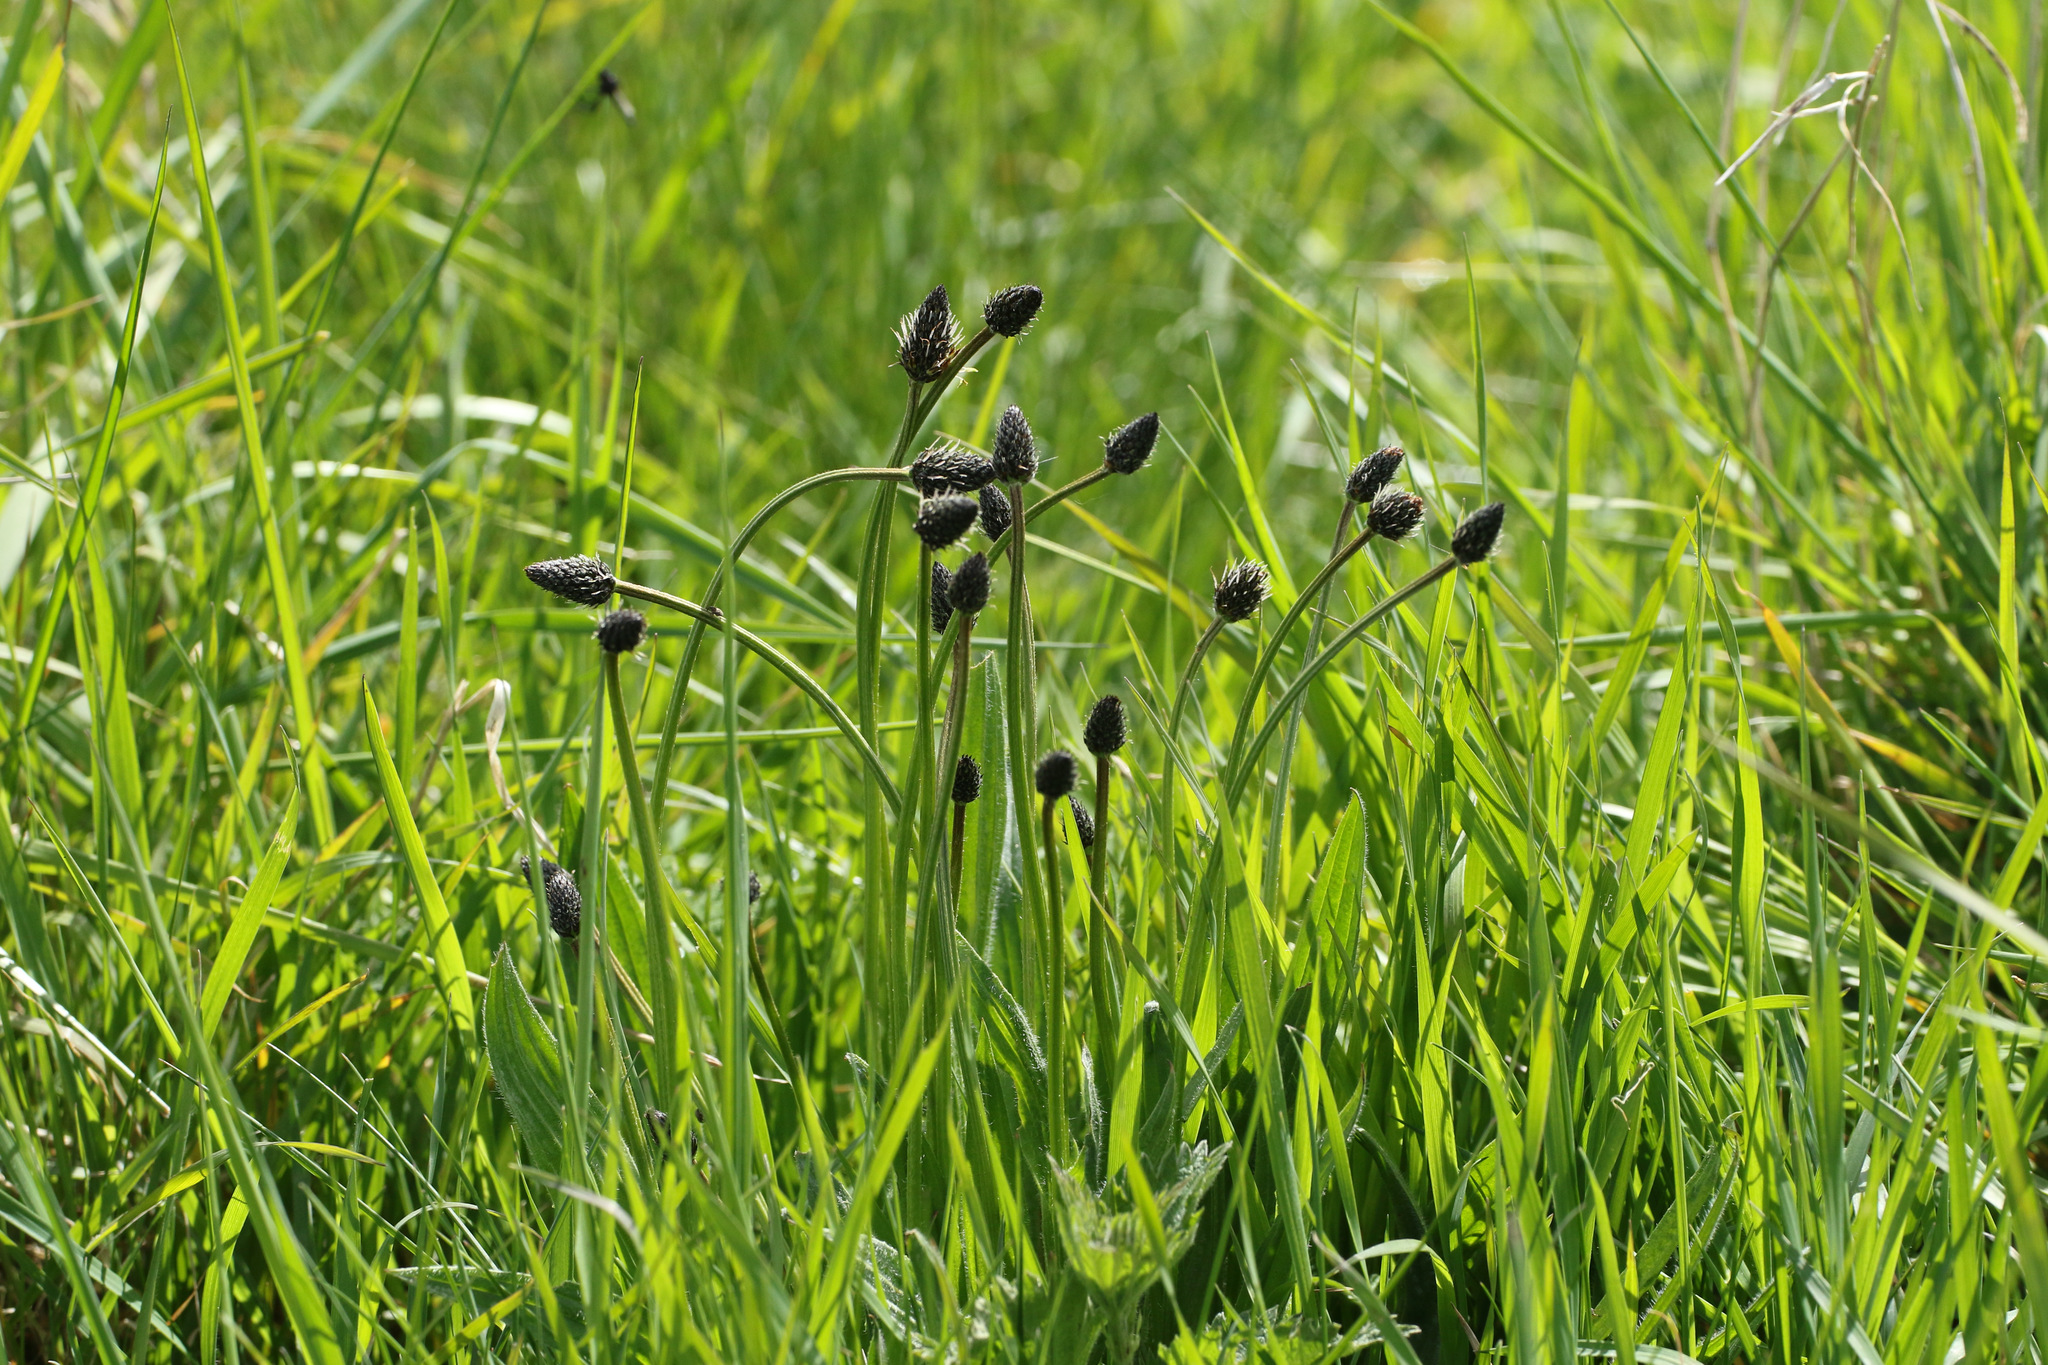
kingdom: Plantae
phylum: Tracheophyta
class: Magnoliopsida
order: Lamiales
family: Plantaginaceae
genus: Plantago
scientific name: Plantago lanceolata
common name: Ribwort plantain
